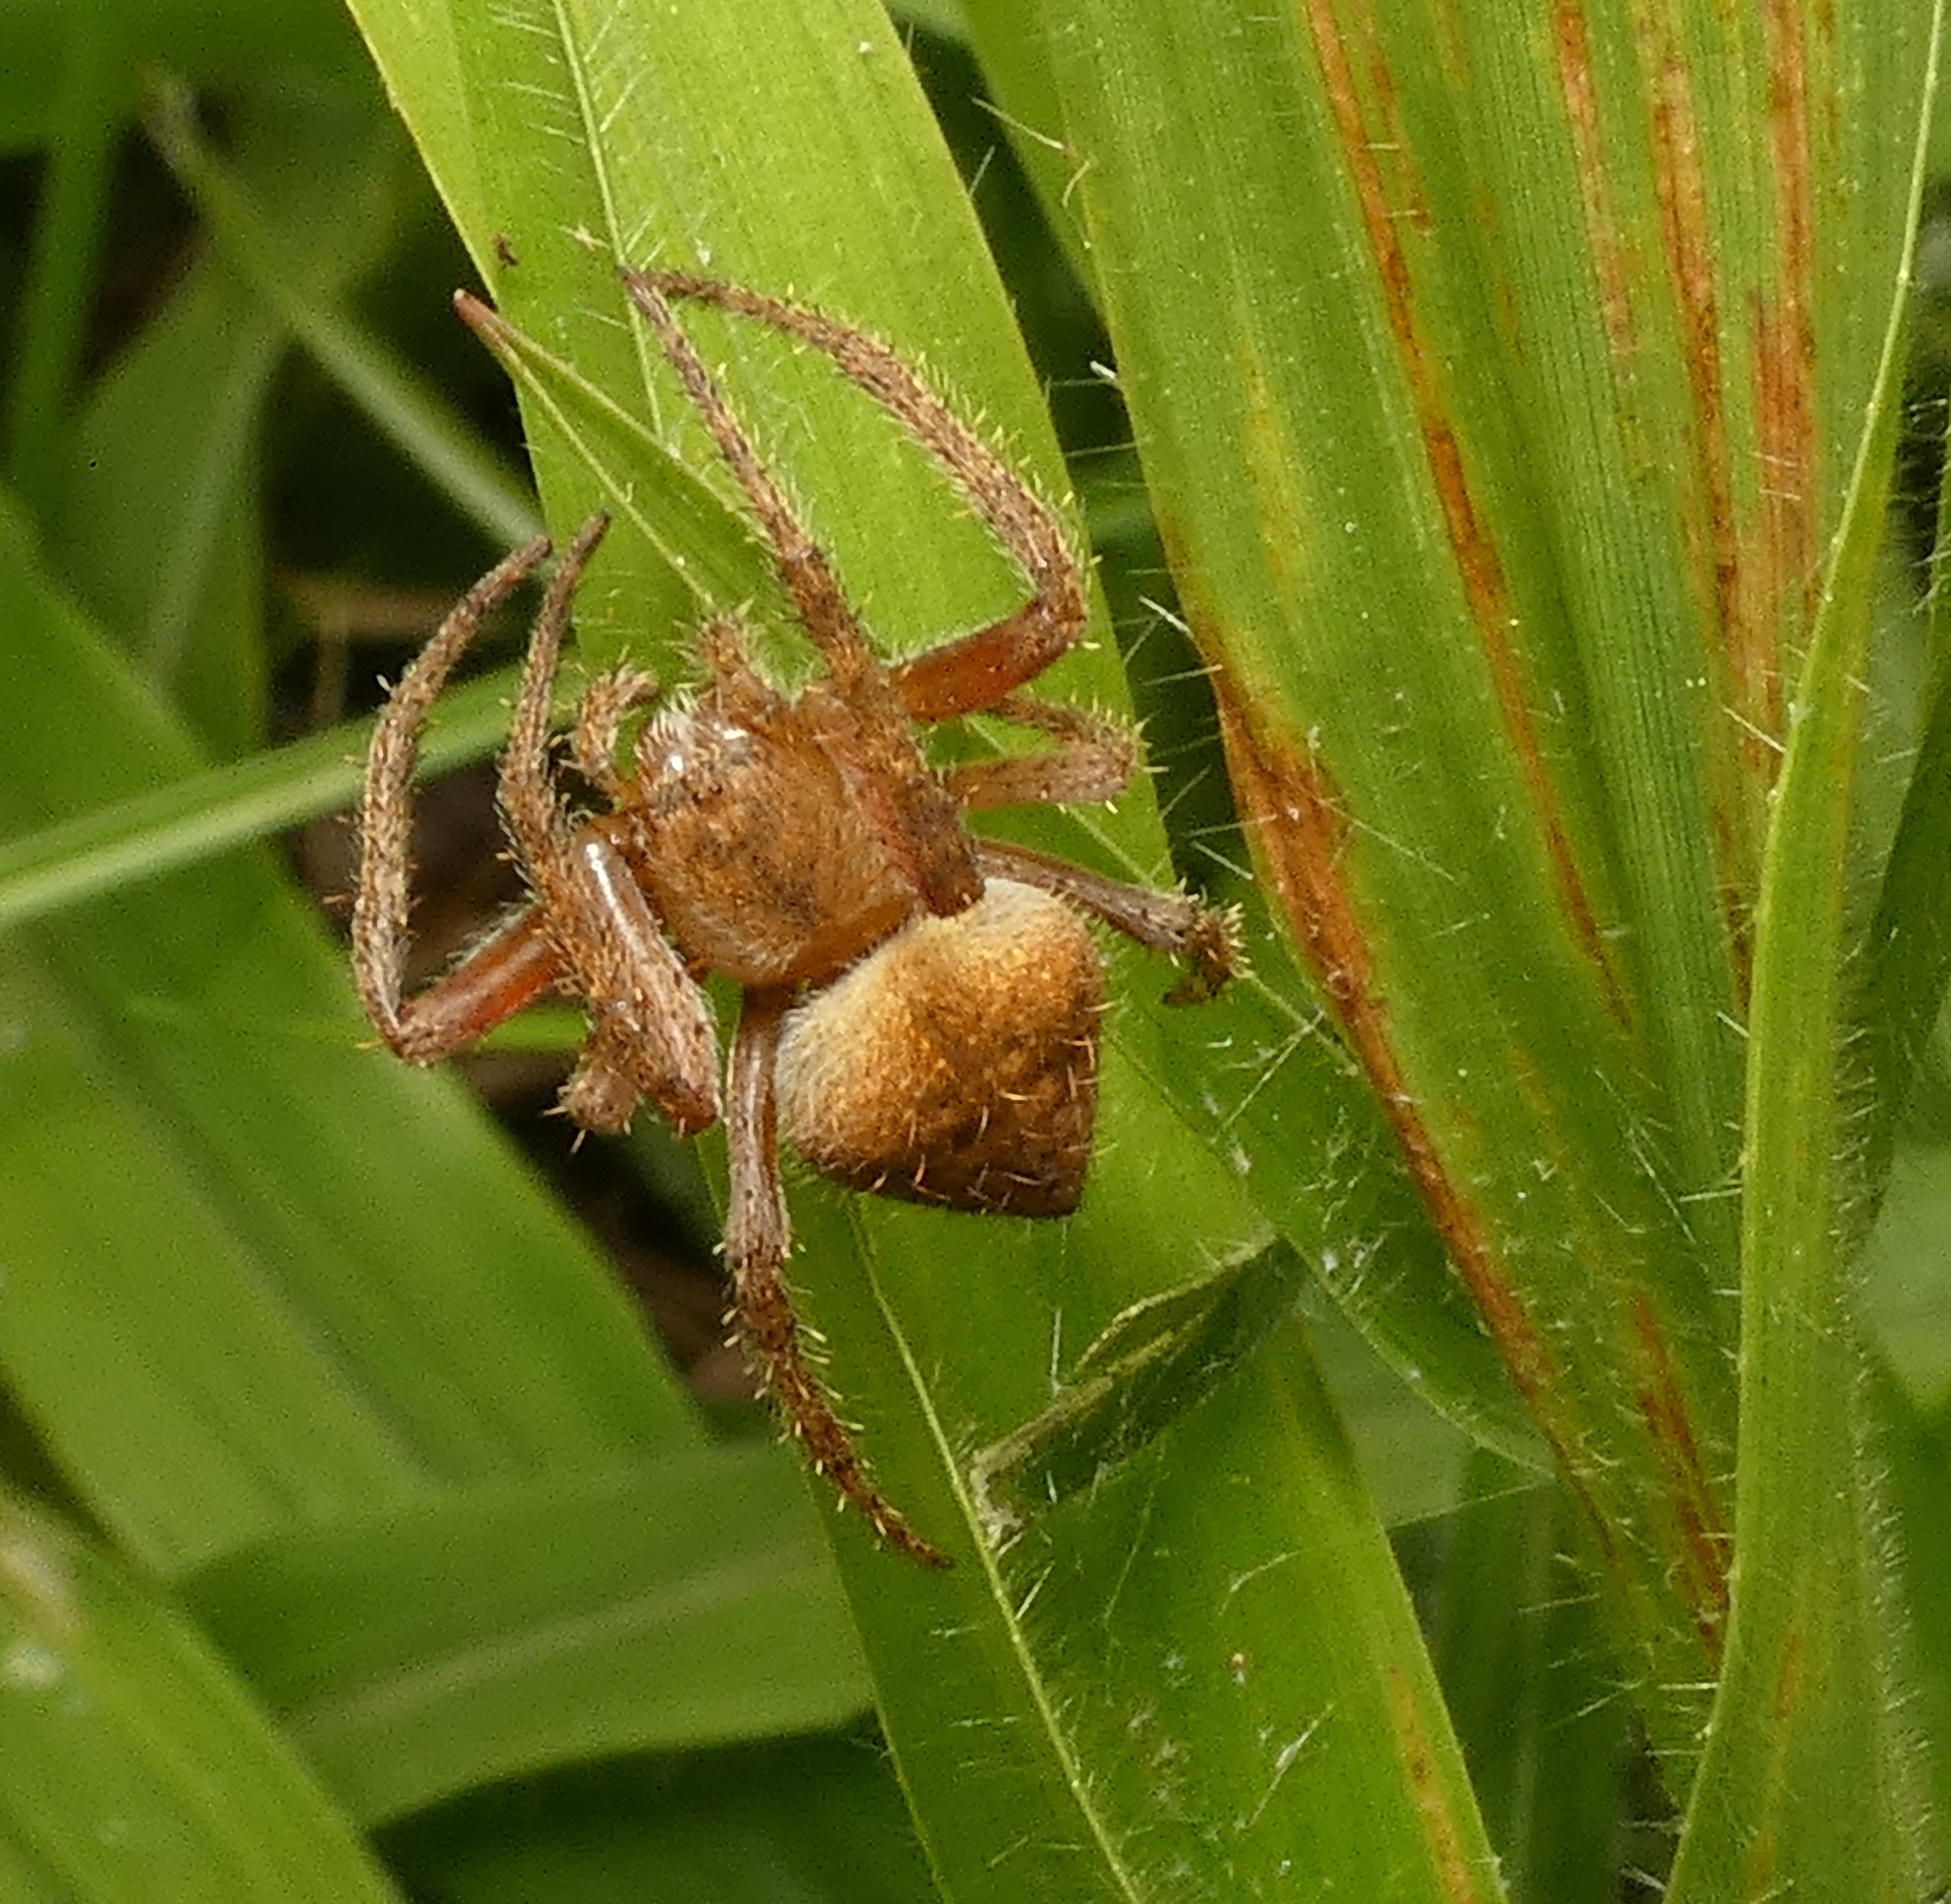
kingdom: Animalia
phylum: Arthropoda
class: Arachnida
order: Araneae
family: Araneidae
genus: Eriophora
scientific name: Eriophora edax
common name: Orb weavers
